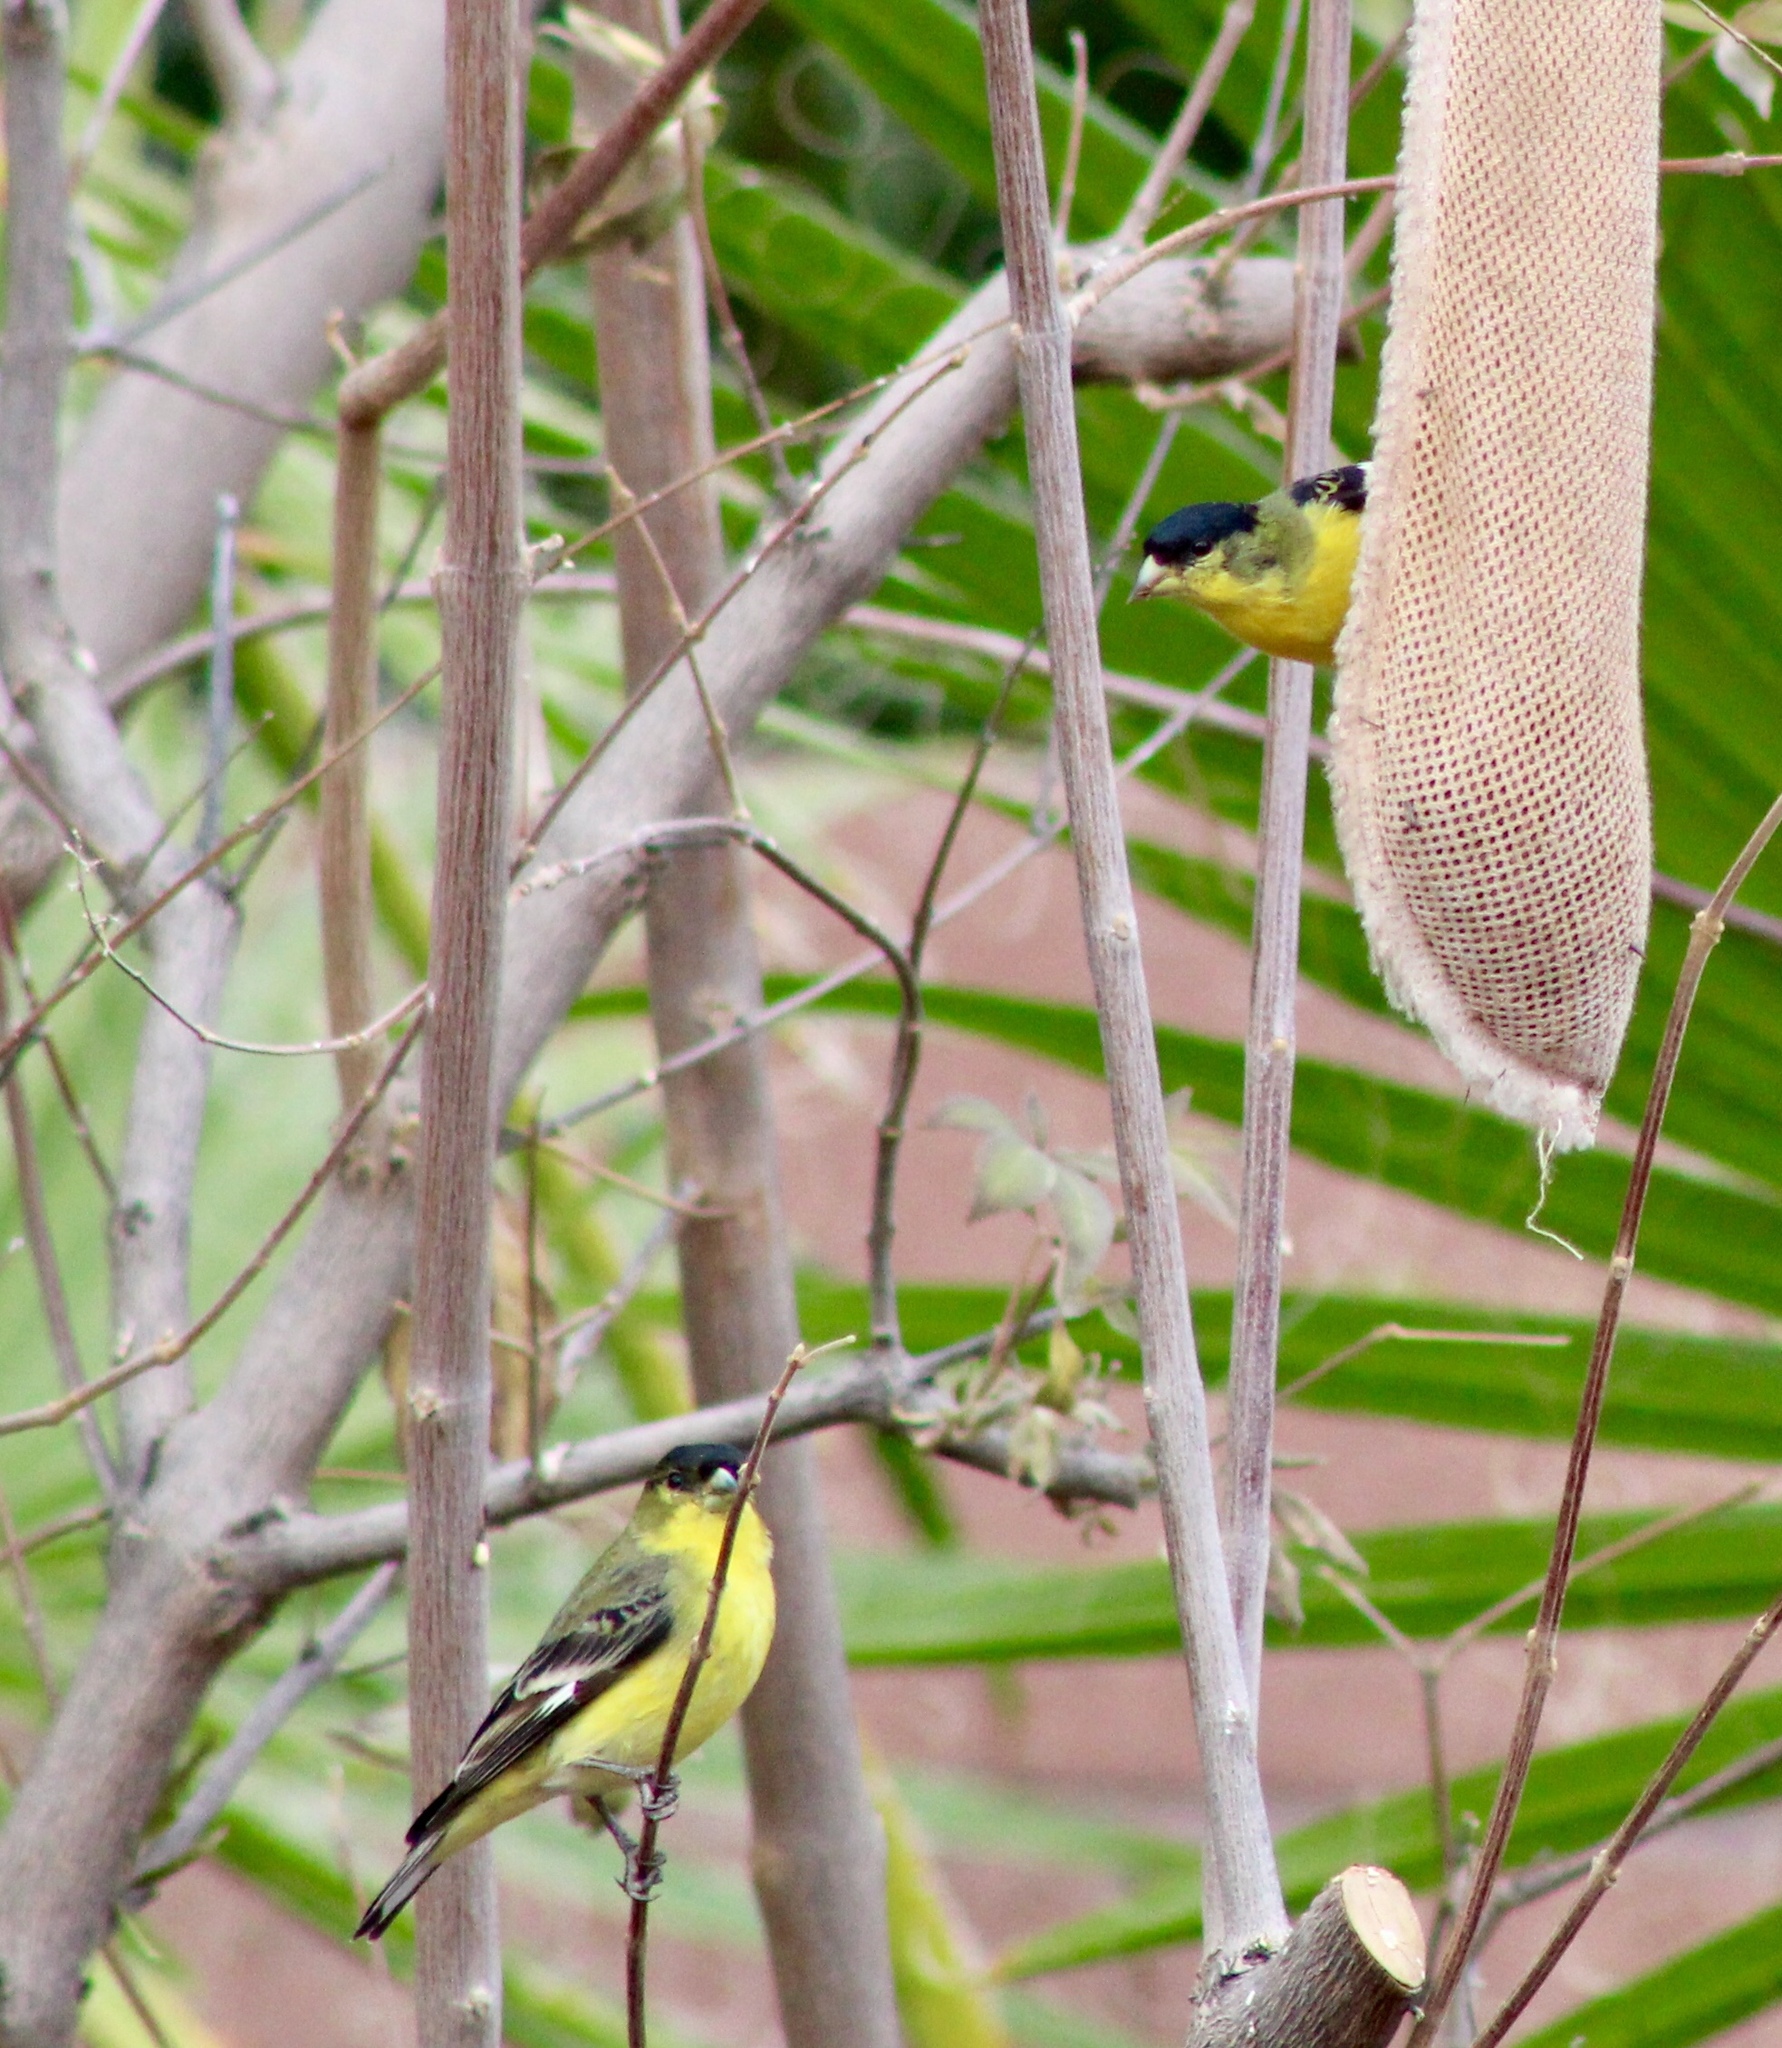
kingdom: Animalia
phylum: Chordata
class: Aves
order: Passeriformes
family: Fringillidae
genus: Spinus
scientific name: Spinus psaltria
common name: Lesser goldfinch
